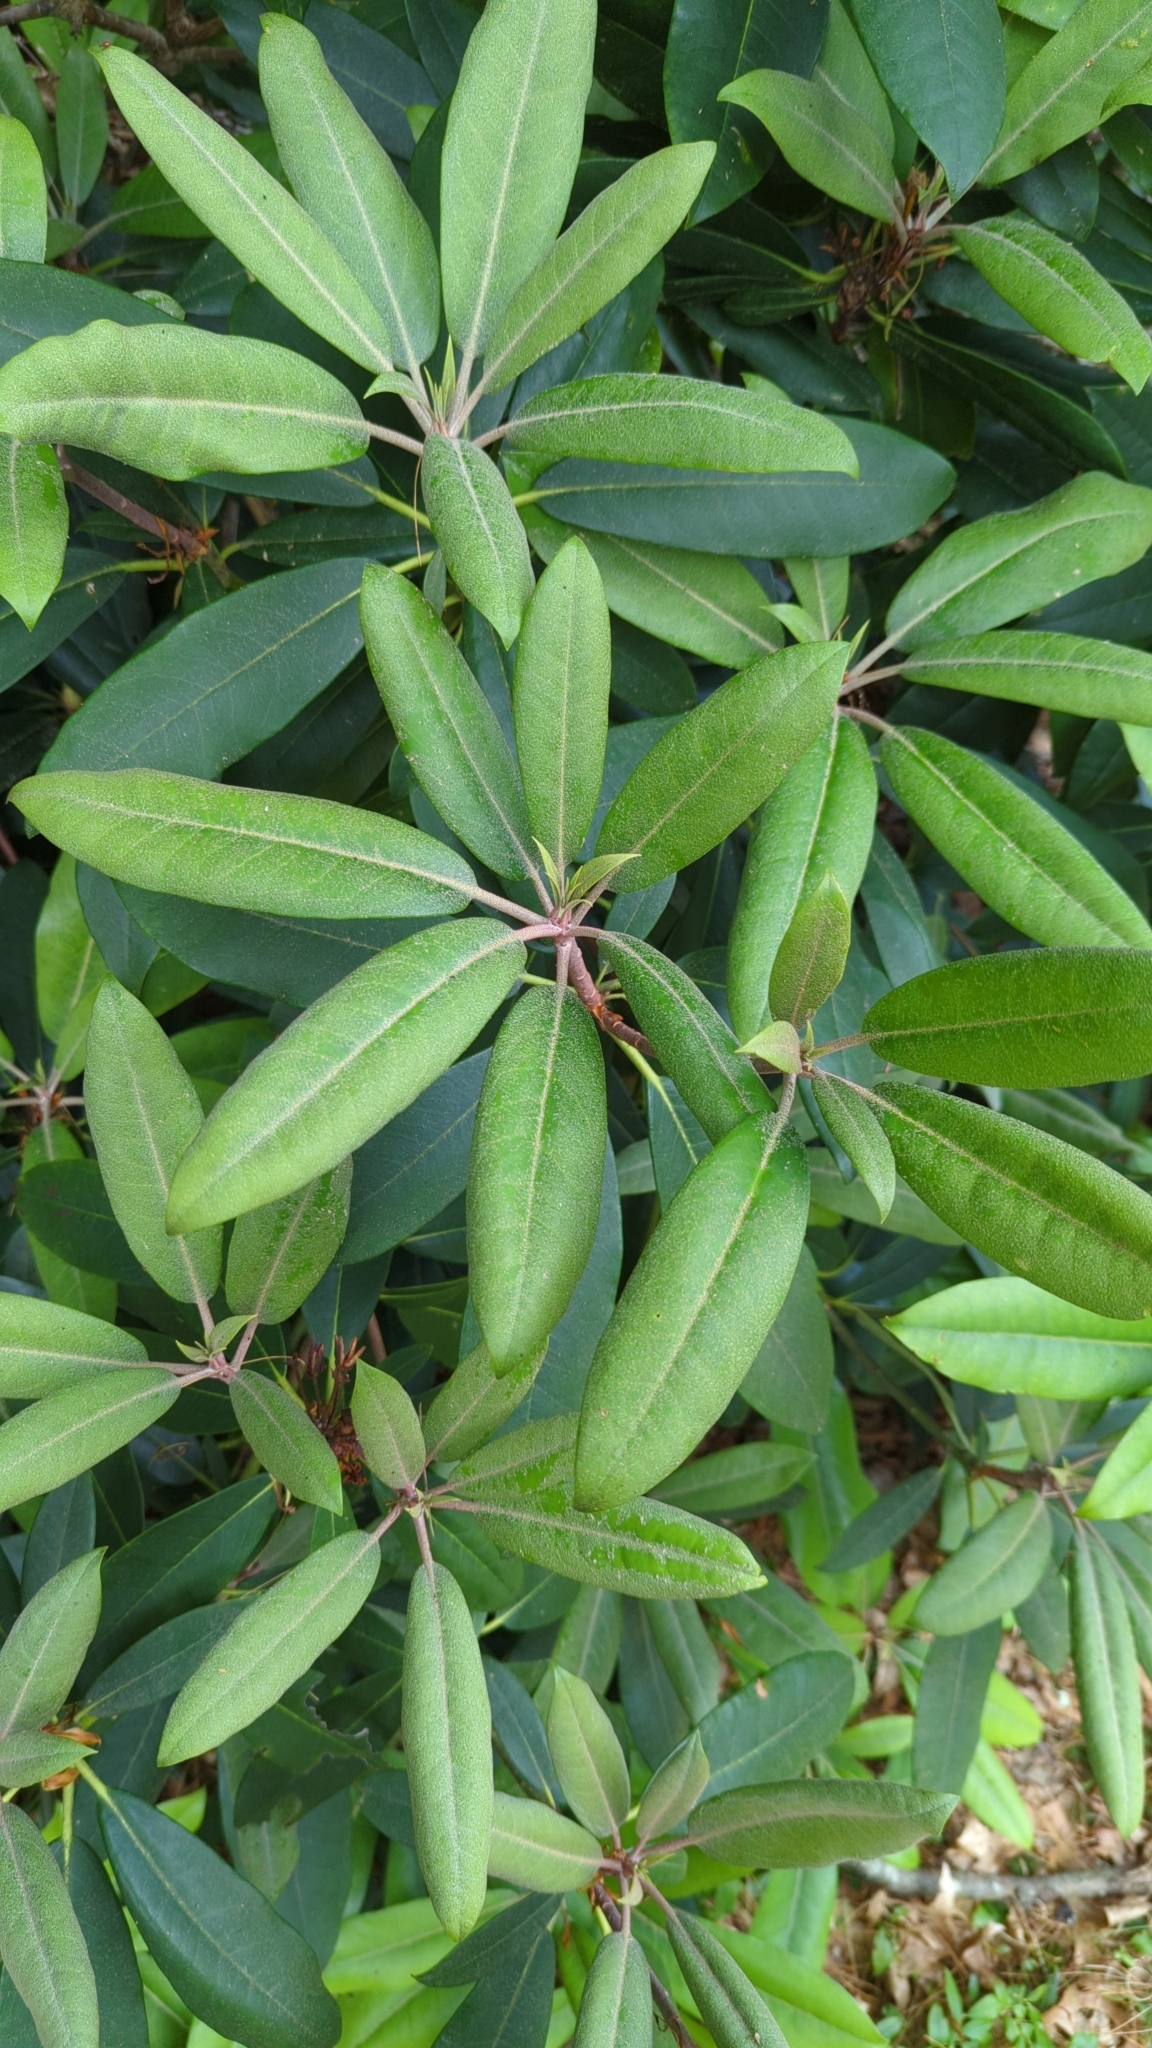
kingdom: Plantae
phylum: Tracheophyta
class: Magnoliopsida
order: Ericales
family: Ericaceae
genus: Rhododendron
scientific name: Rhododendron maximum
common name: Great rhododendron
